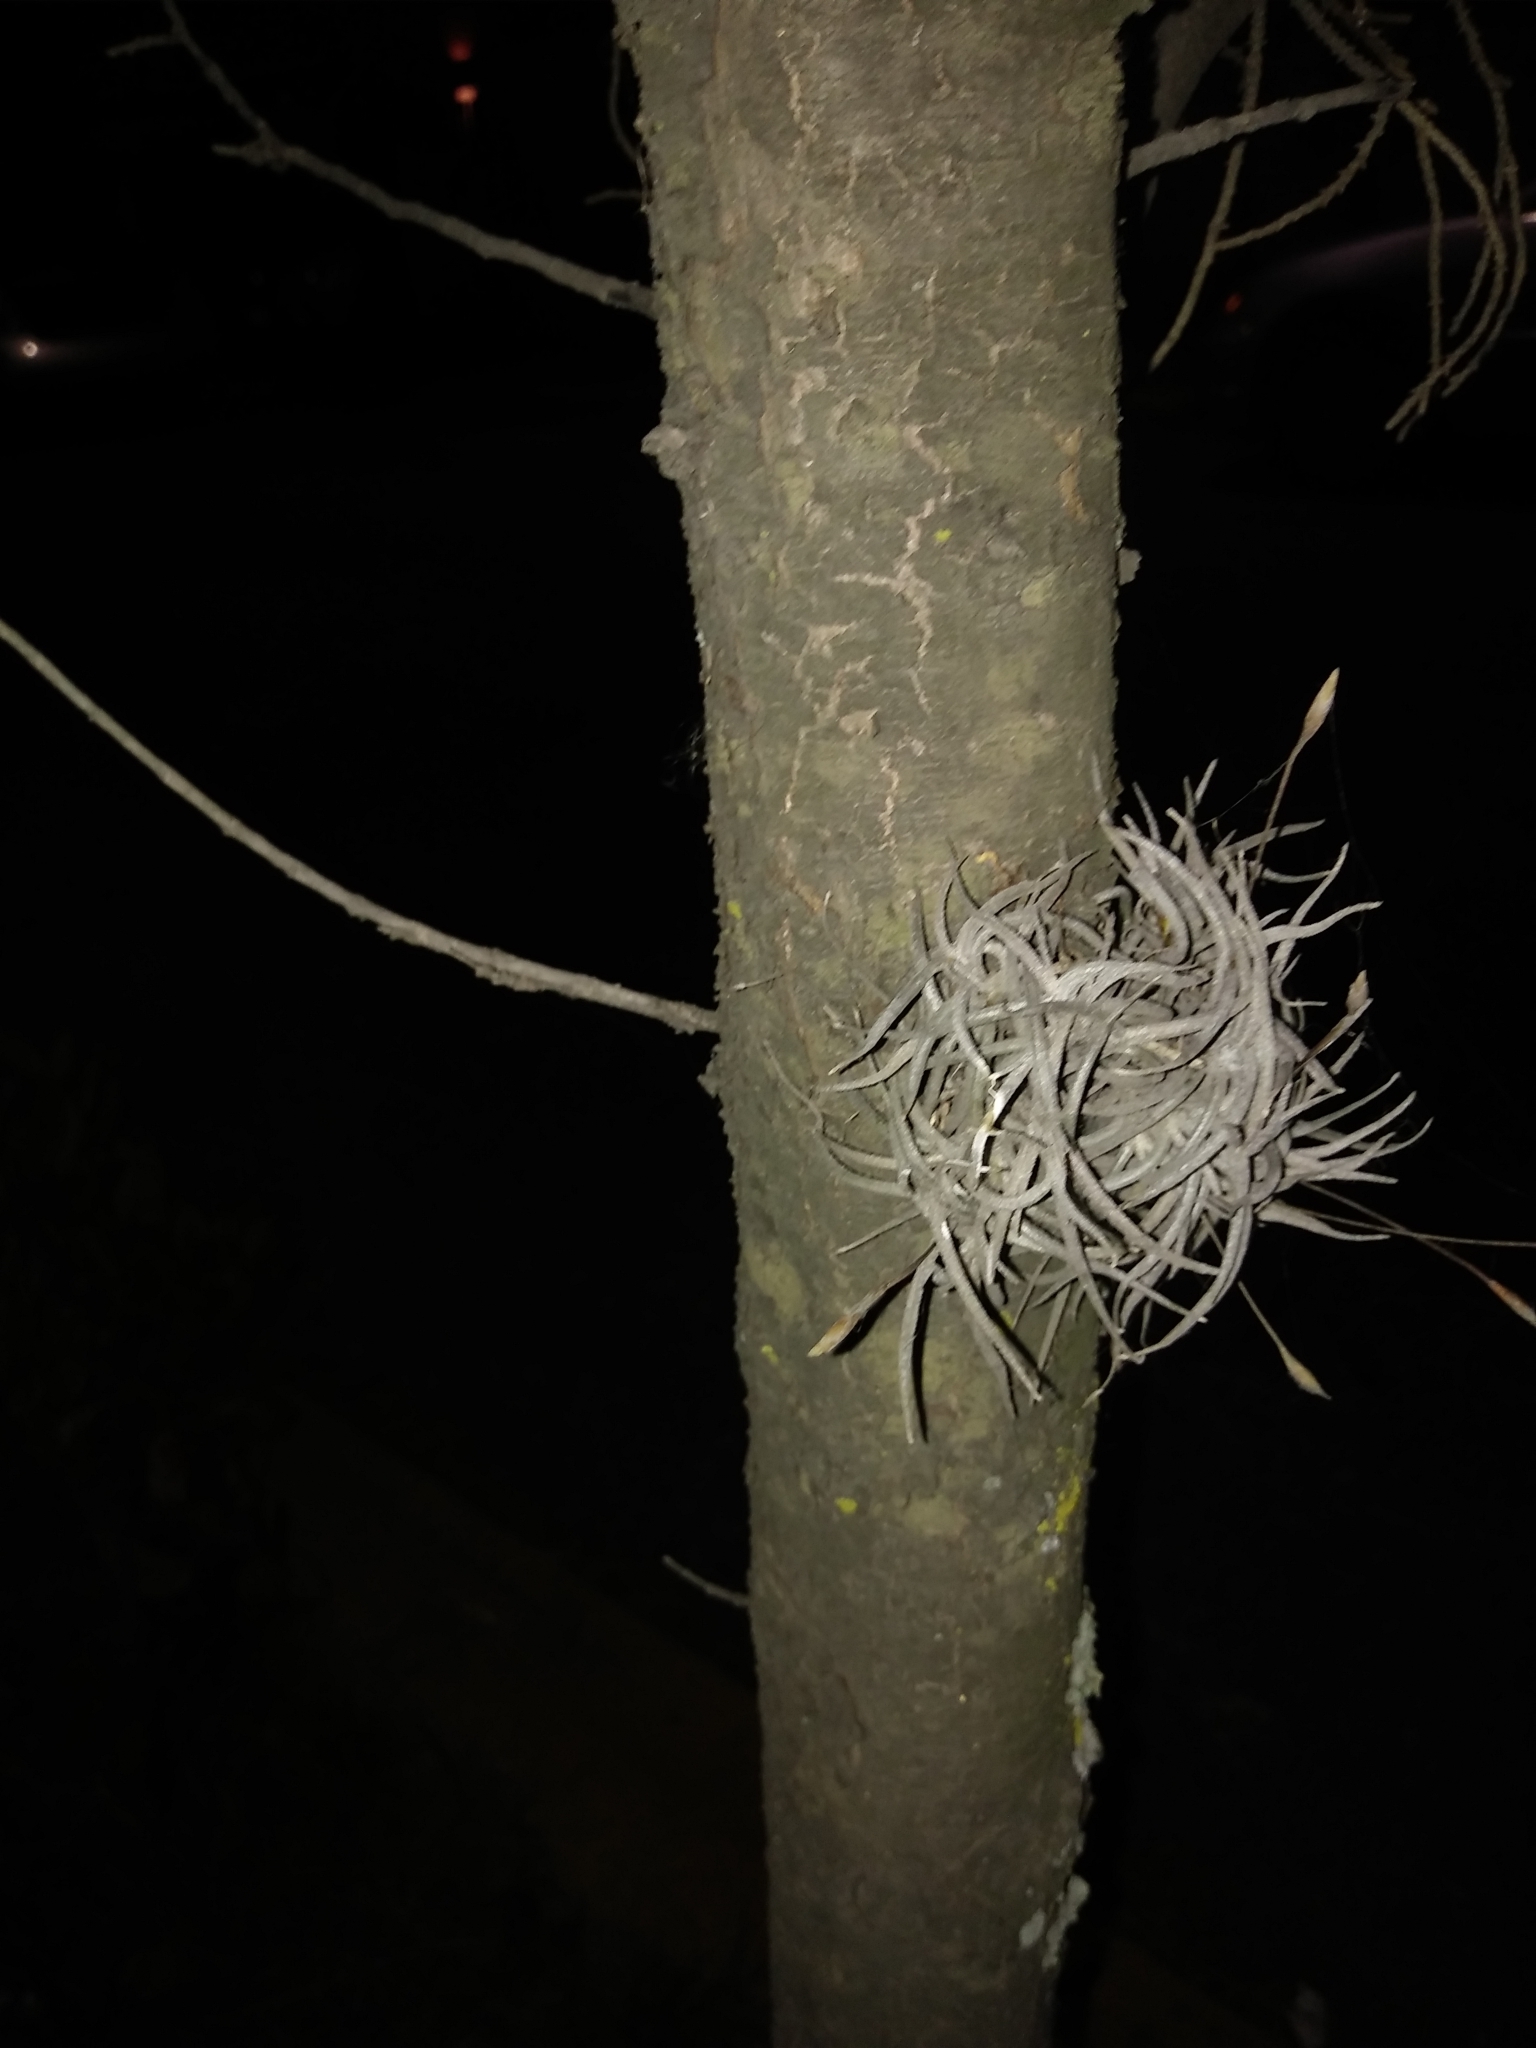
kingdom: Plantae
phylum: Tracheophyta
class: Liliopsida
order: Poales
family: Bromeliaceae
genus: Tillandsia
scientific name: Tillandsia recurvata
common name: Small ballmoss
